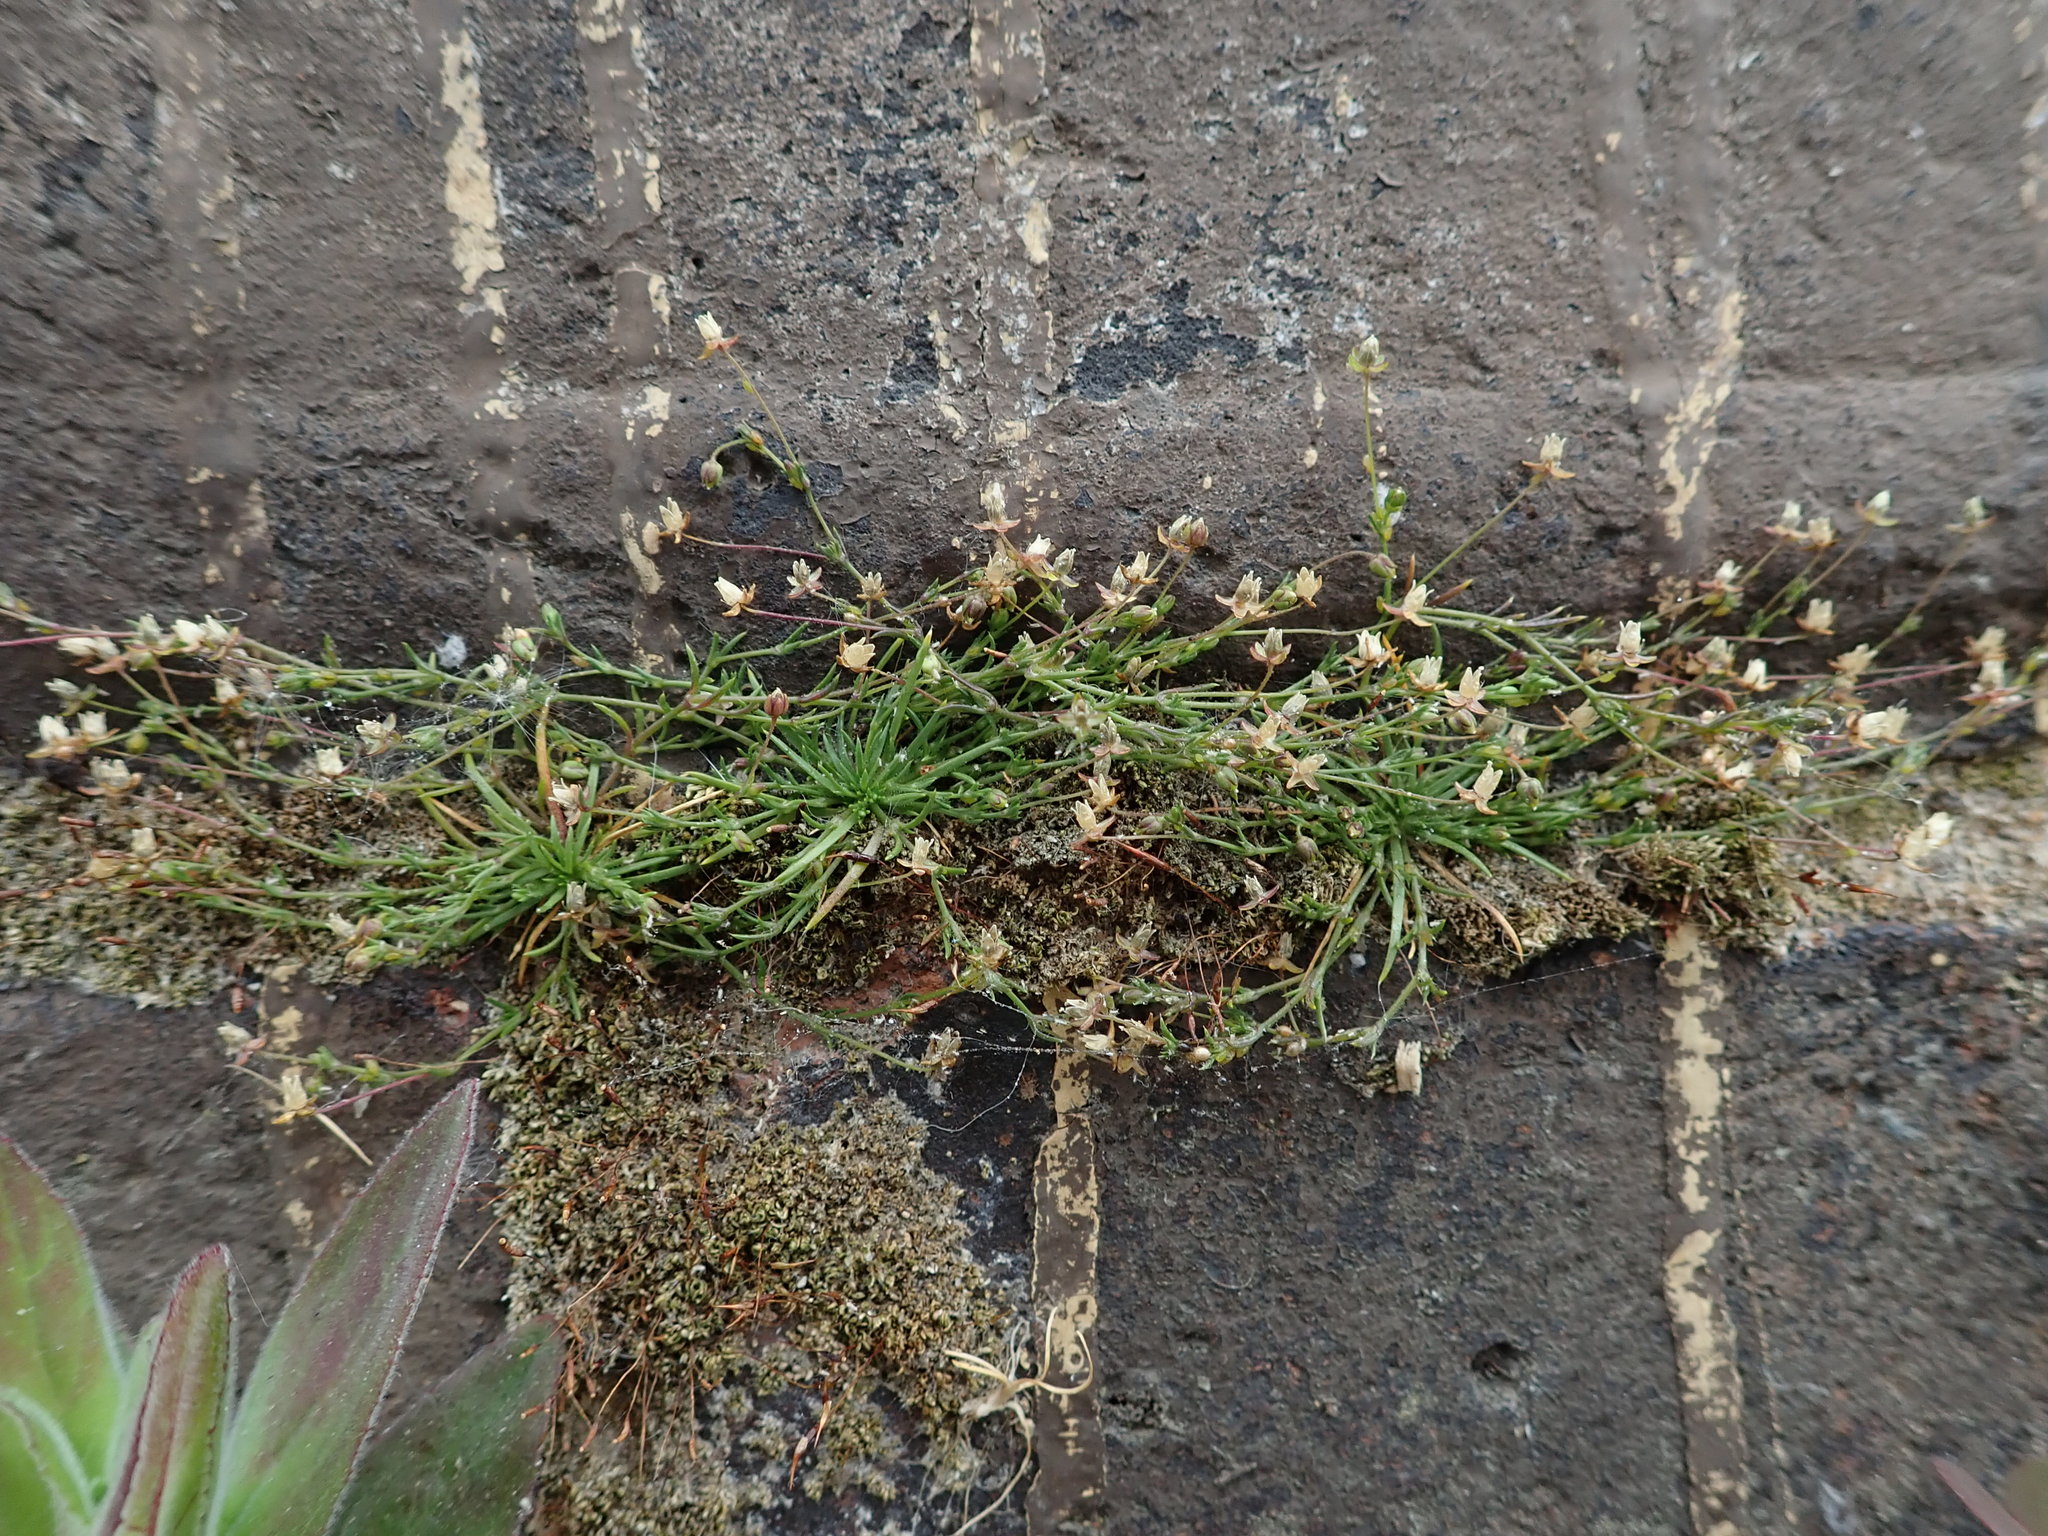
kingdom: Plantae
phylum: Tracheophyta
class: Magnoliopsida
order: Caryophyllales
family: Caryophyllaceae
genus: Sagina
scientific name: Sagina procumbens
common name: Procumbent pearlwort
